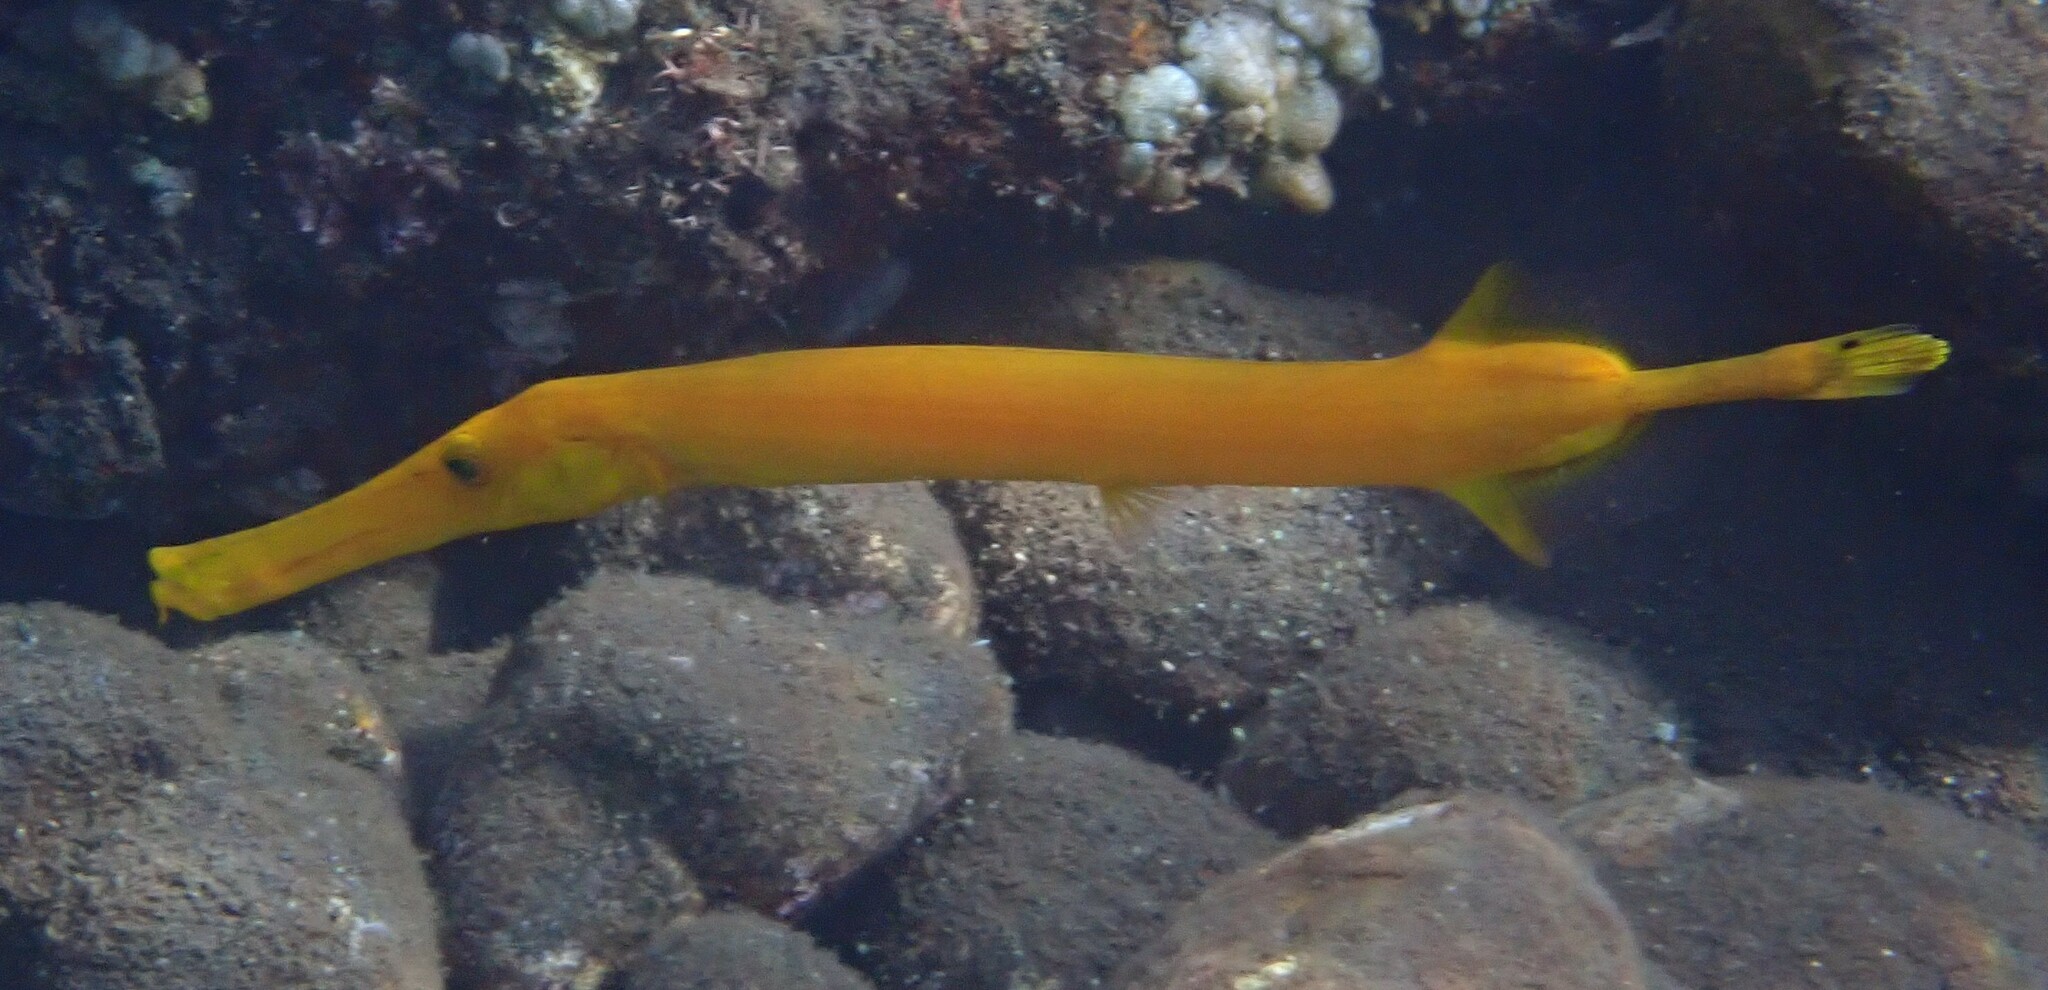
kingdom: Animalia
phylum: Chordata
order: Syngnathiformes
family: Aulostomidae
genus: Aulostomus
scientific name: Aulostomus chinensis
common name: Chinese trumpetfish
